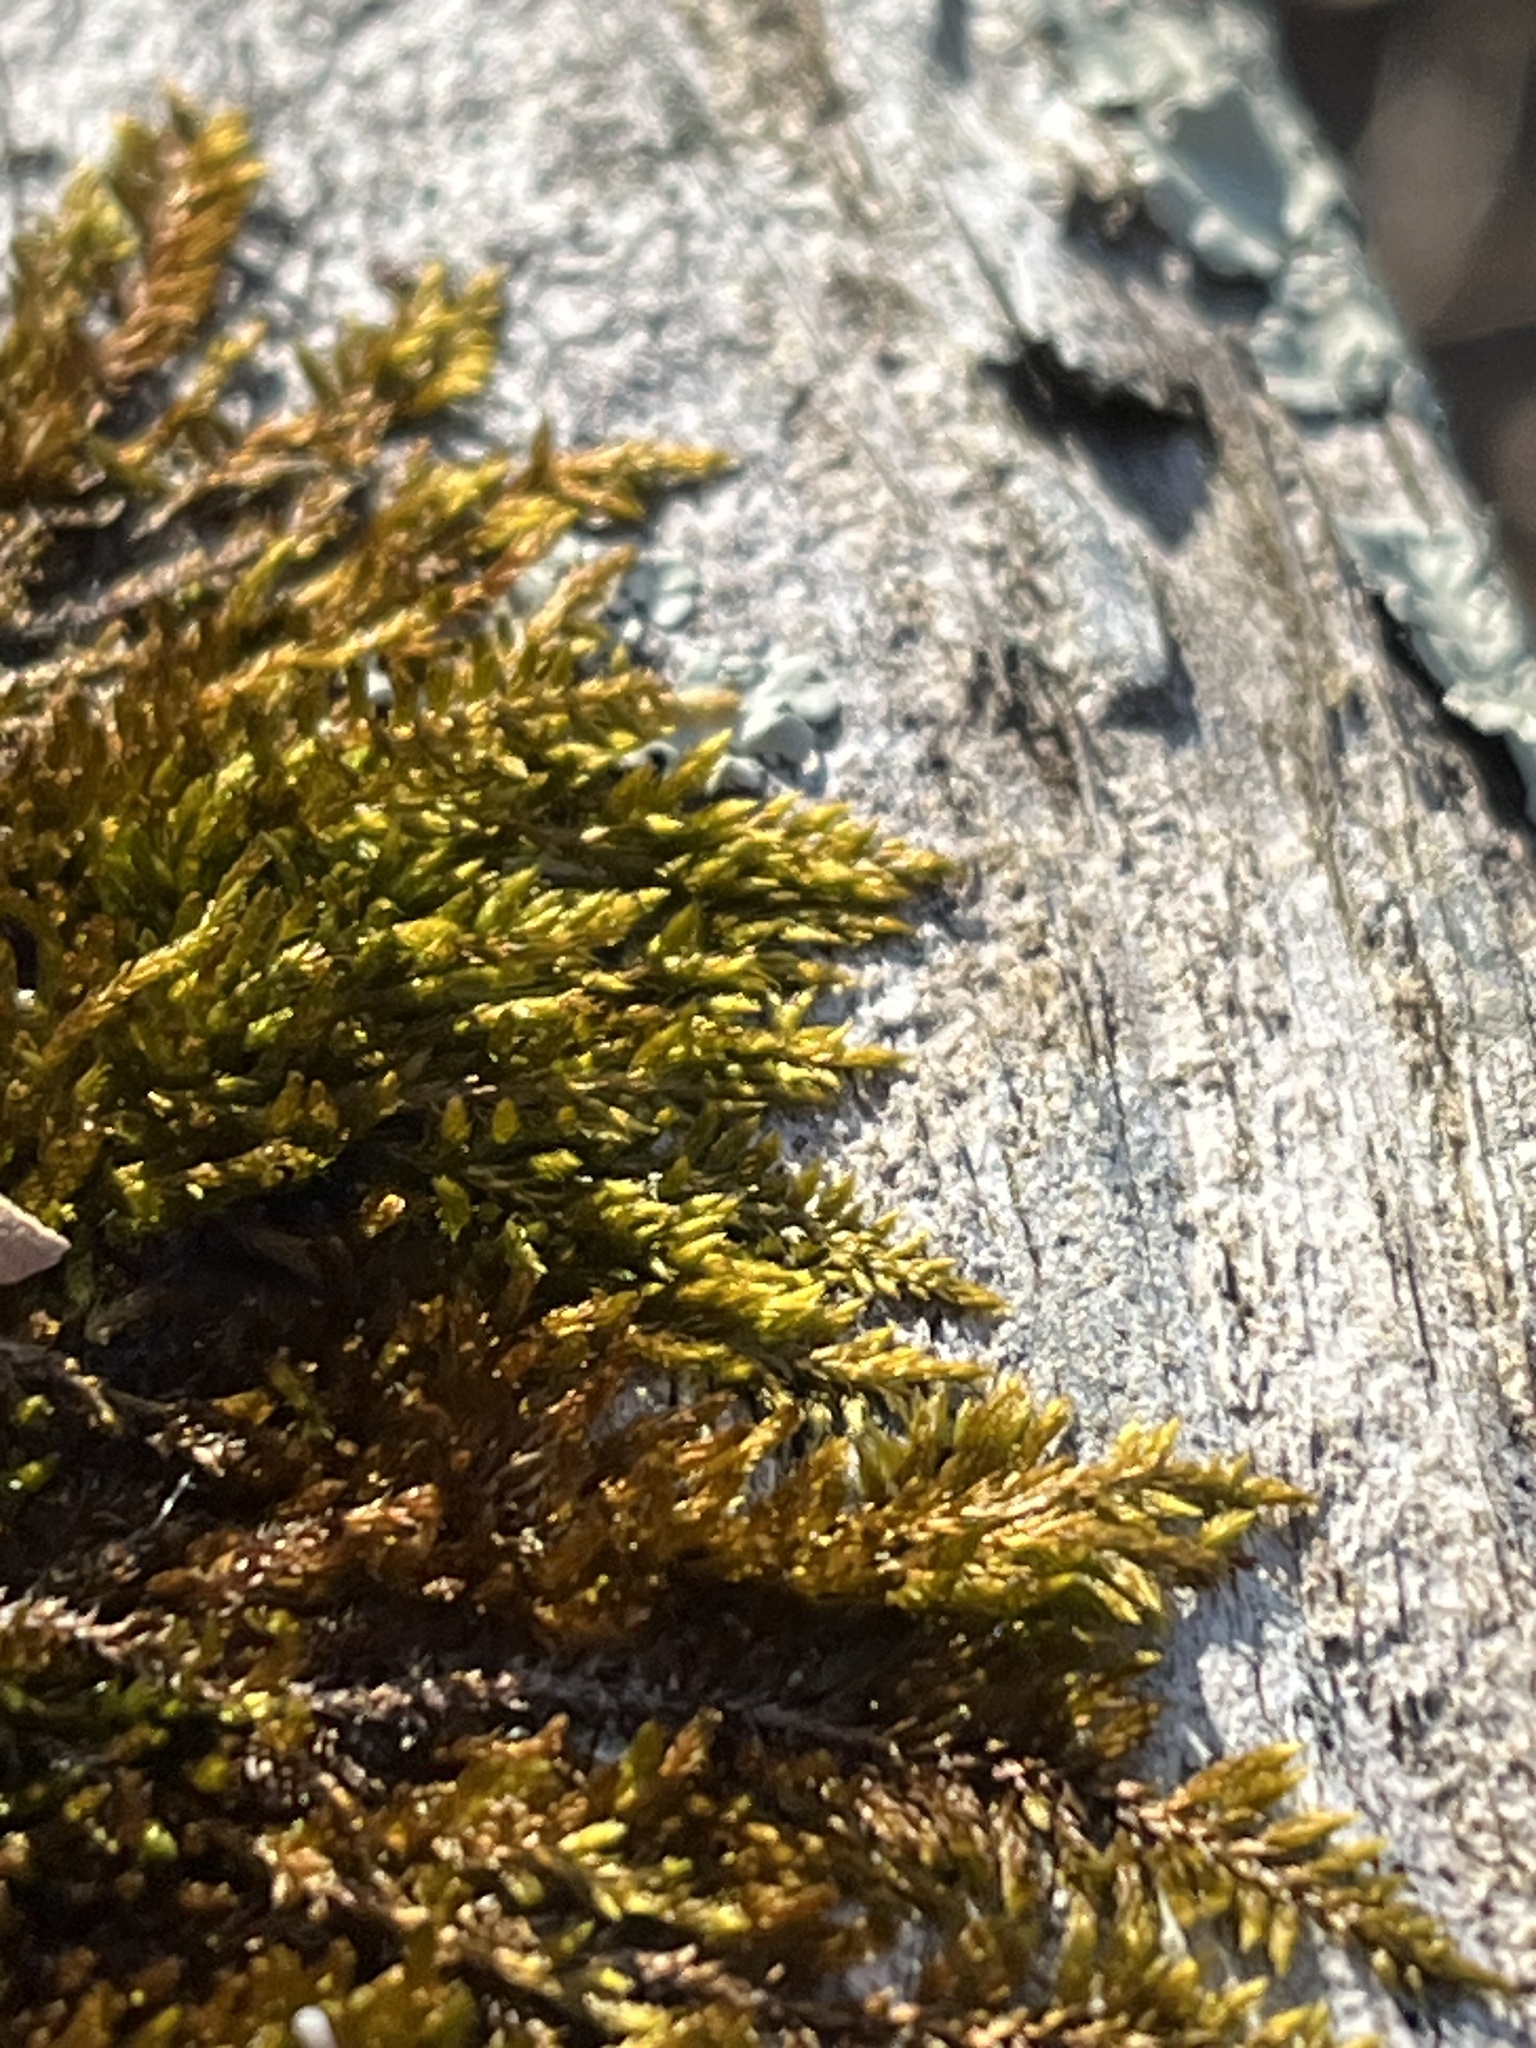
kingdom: Plantae
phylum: Bryophyta
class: Bryopsida
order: Hypnales
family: Callicladiaceae
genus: Callicladium
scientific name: Callicladium imponens
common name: Brocade moss
